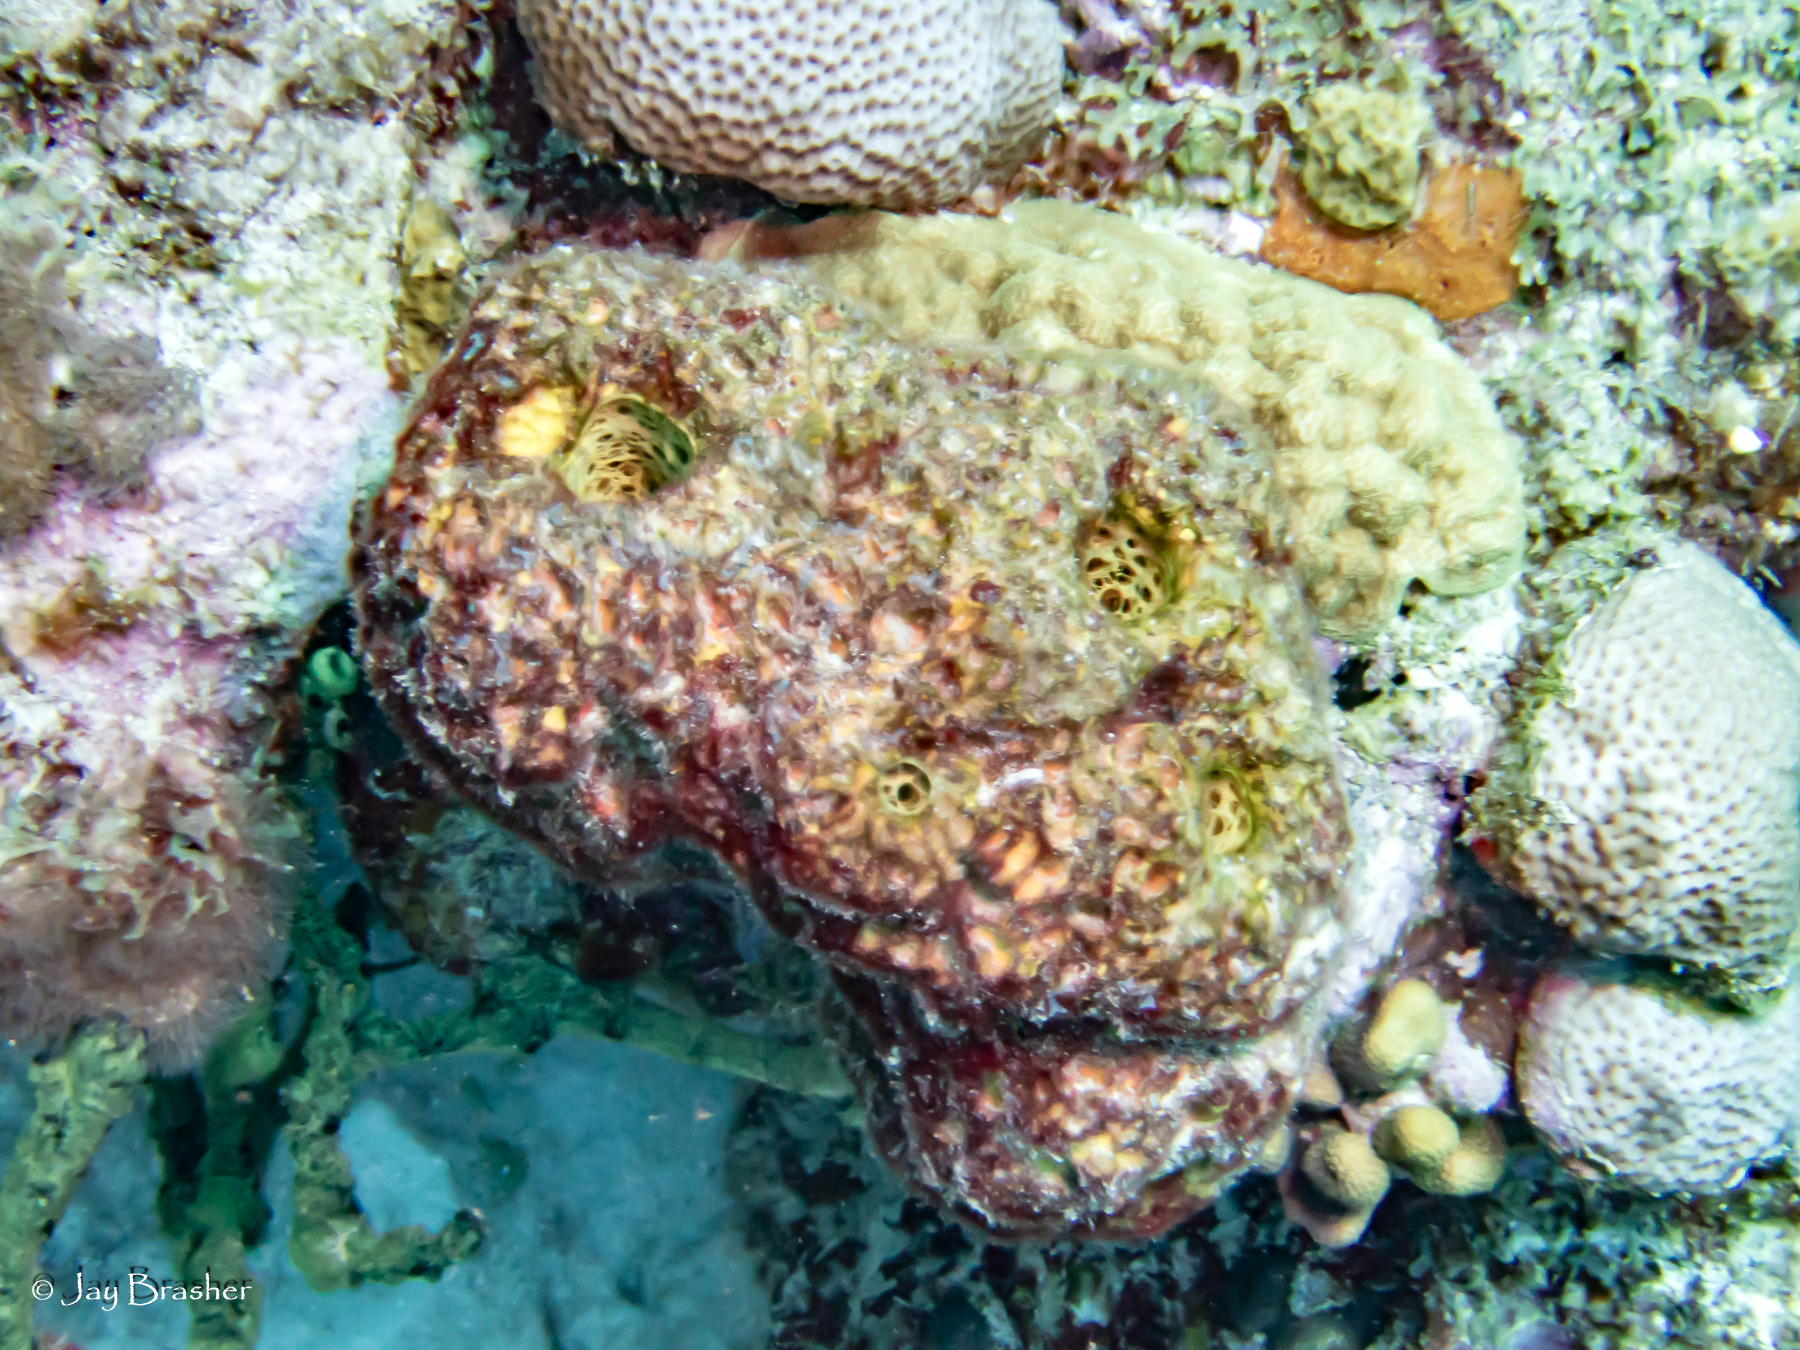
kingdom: Animalia
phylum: Cnidaria
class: Anthozoa
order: Scleractinia
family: Rhizangiidae
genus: Siderastrea
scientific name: Siderastrea siderea
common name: Massive starlet coral
